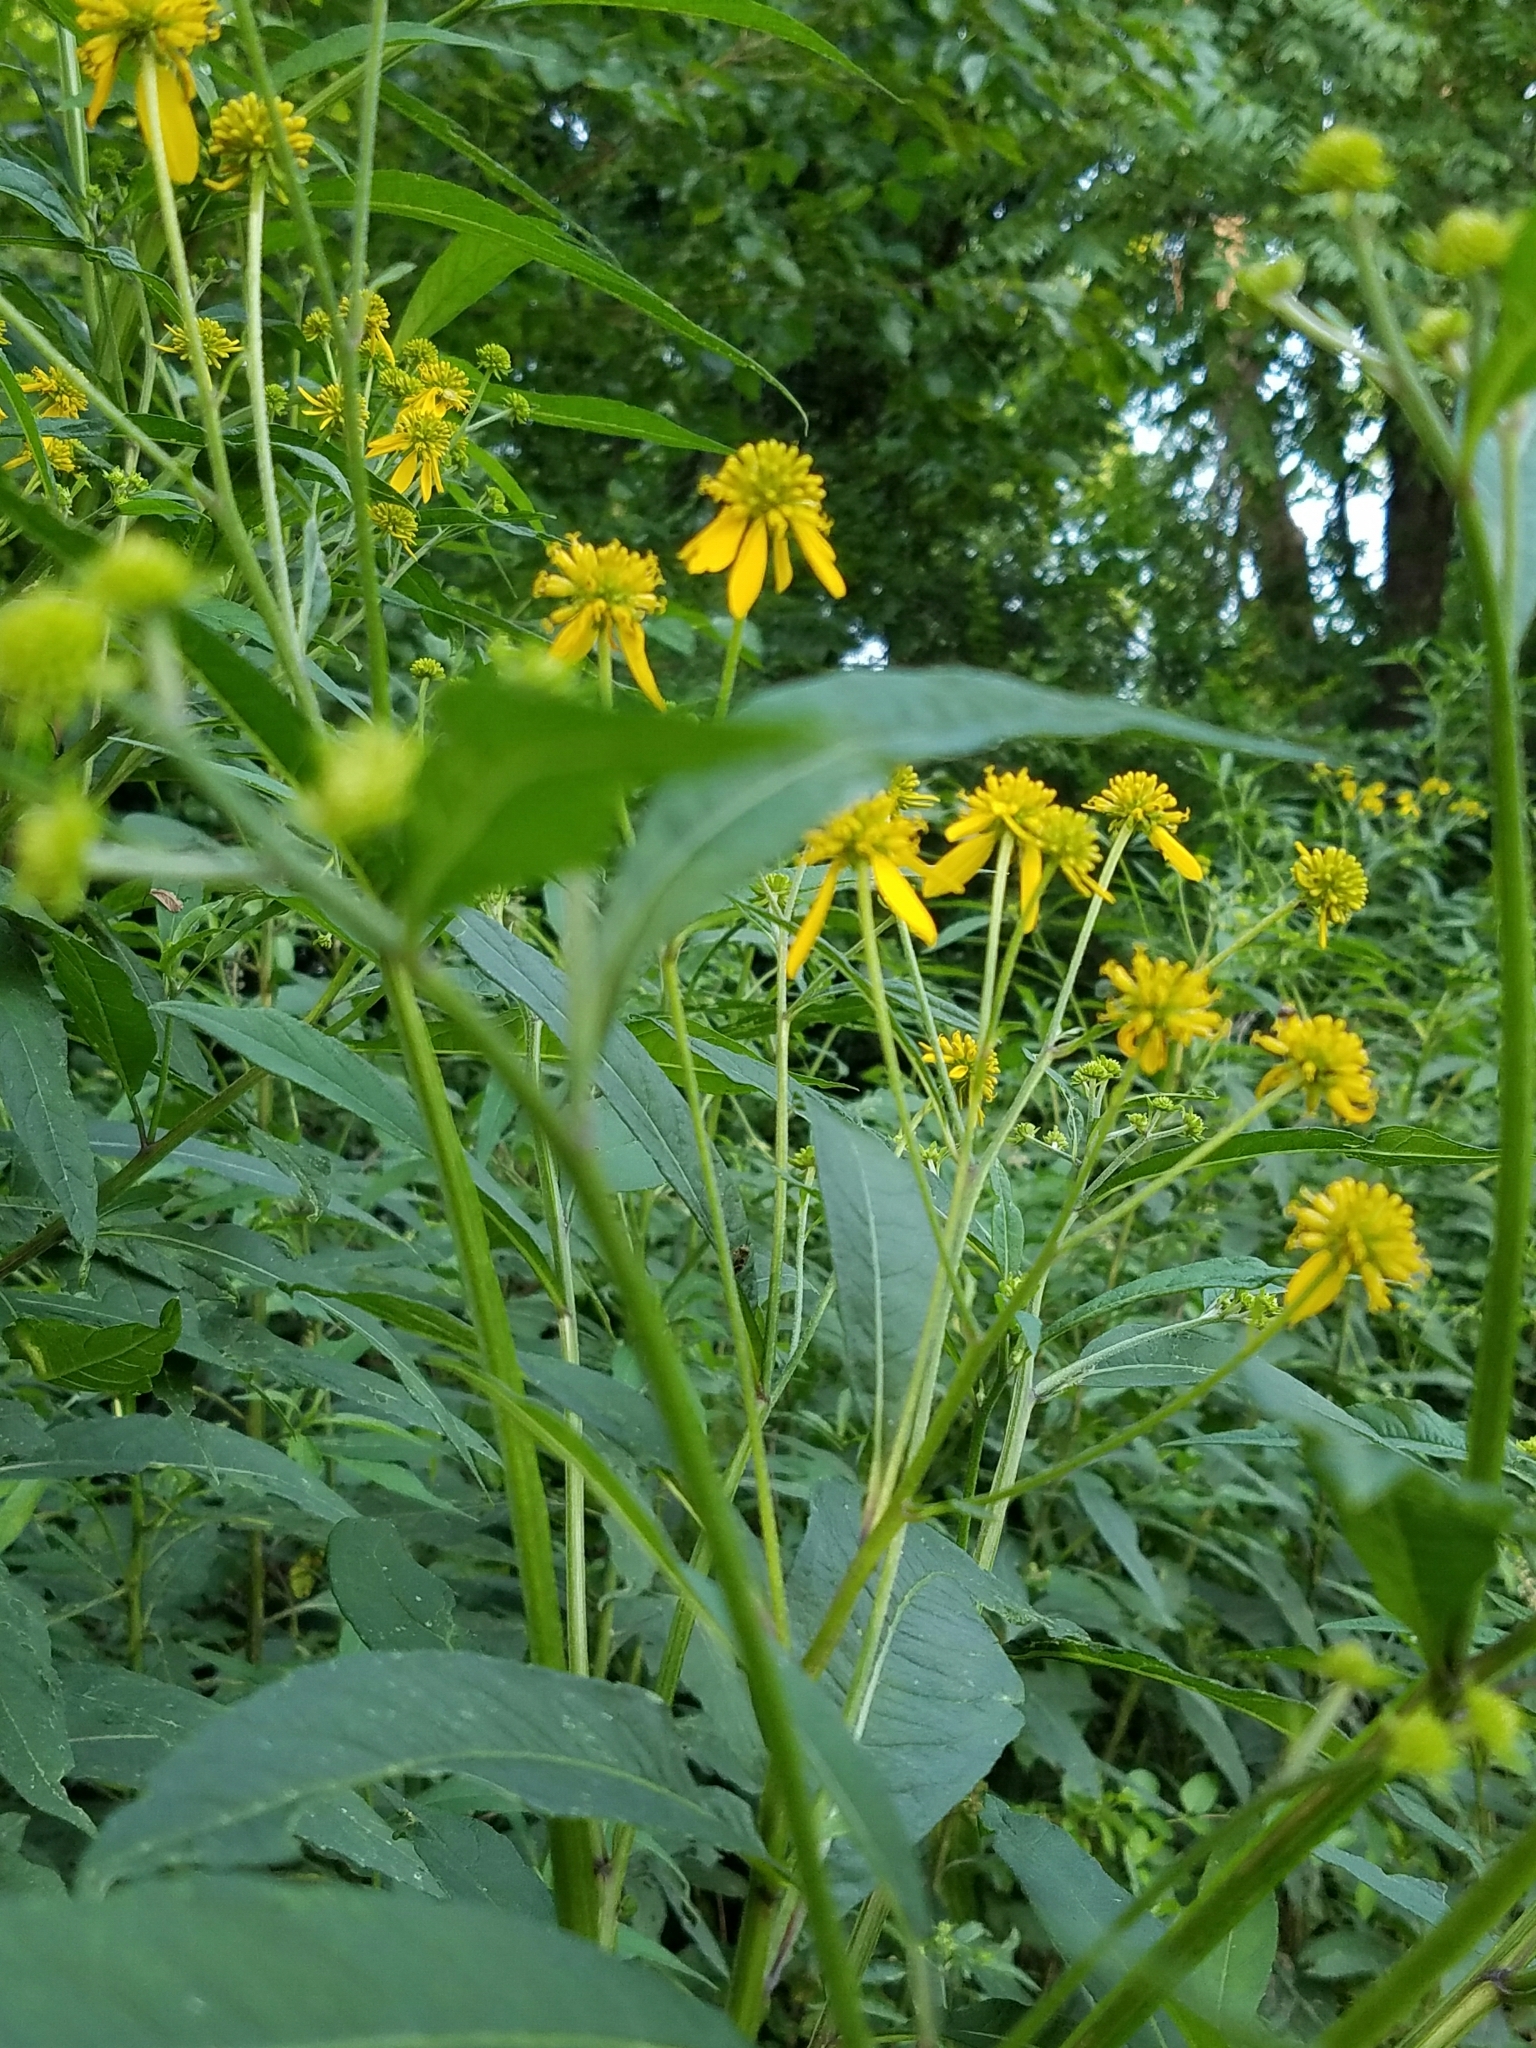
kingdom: Plantae
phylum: Tracheophyta
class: Magnoliopsida
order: Asterales
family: Asteraceae
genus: Verbesina
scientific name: Verbesina alternifolia
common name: Wingstem
